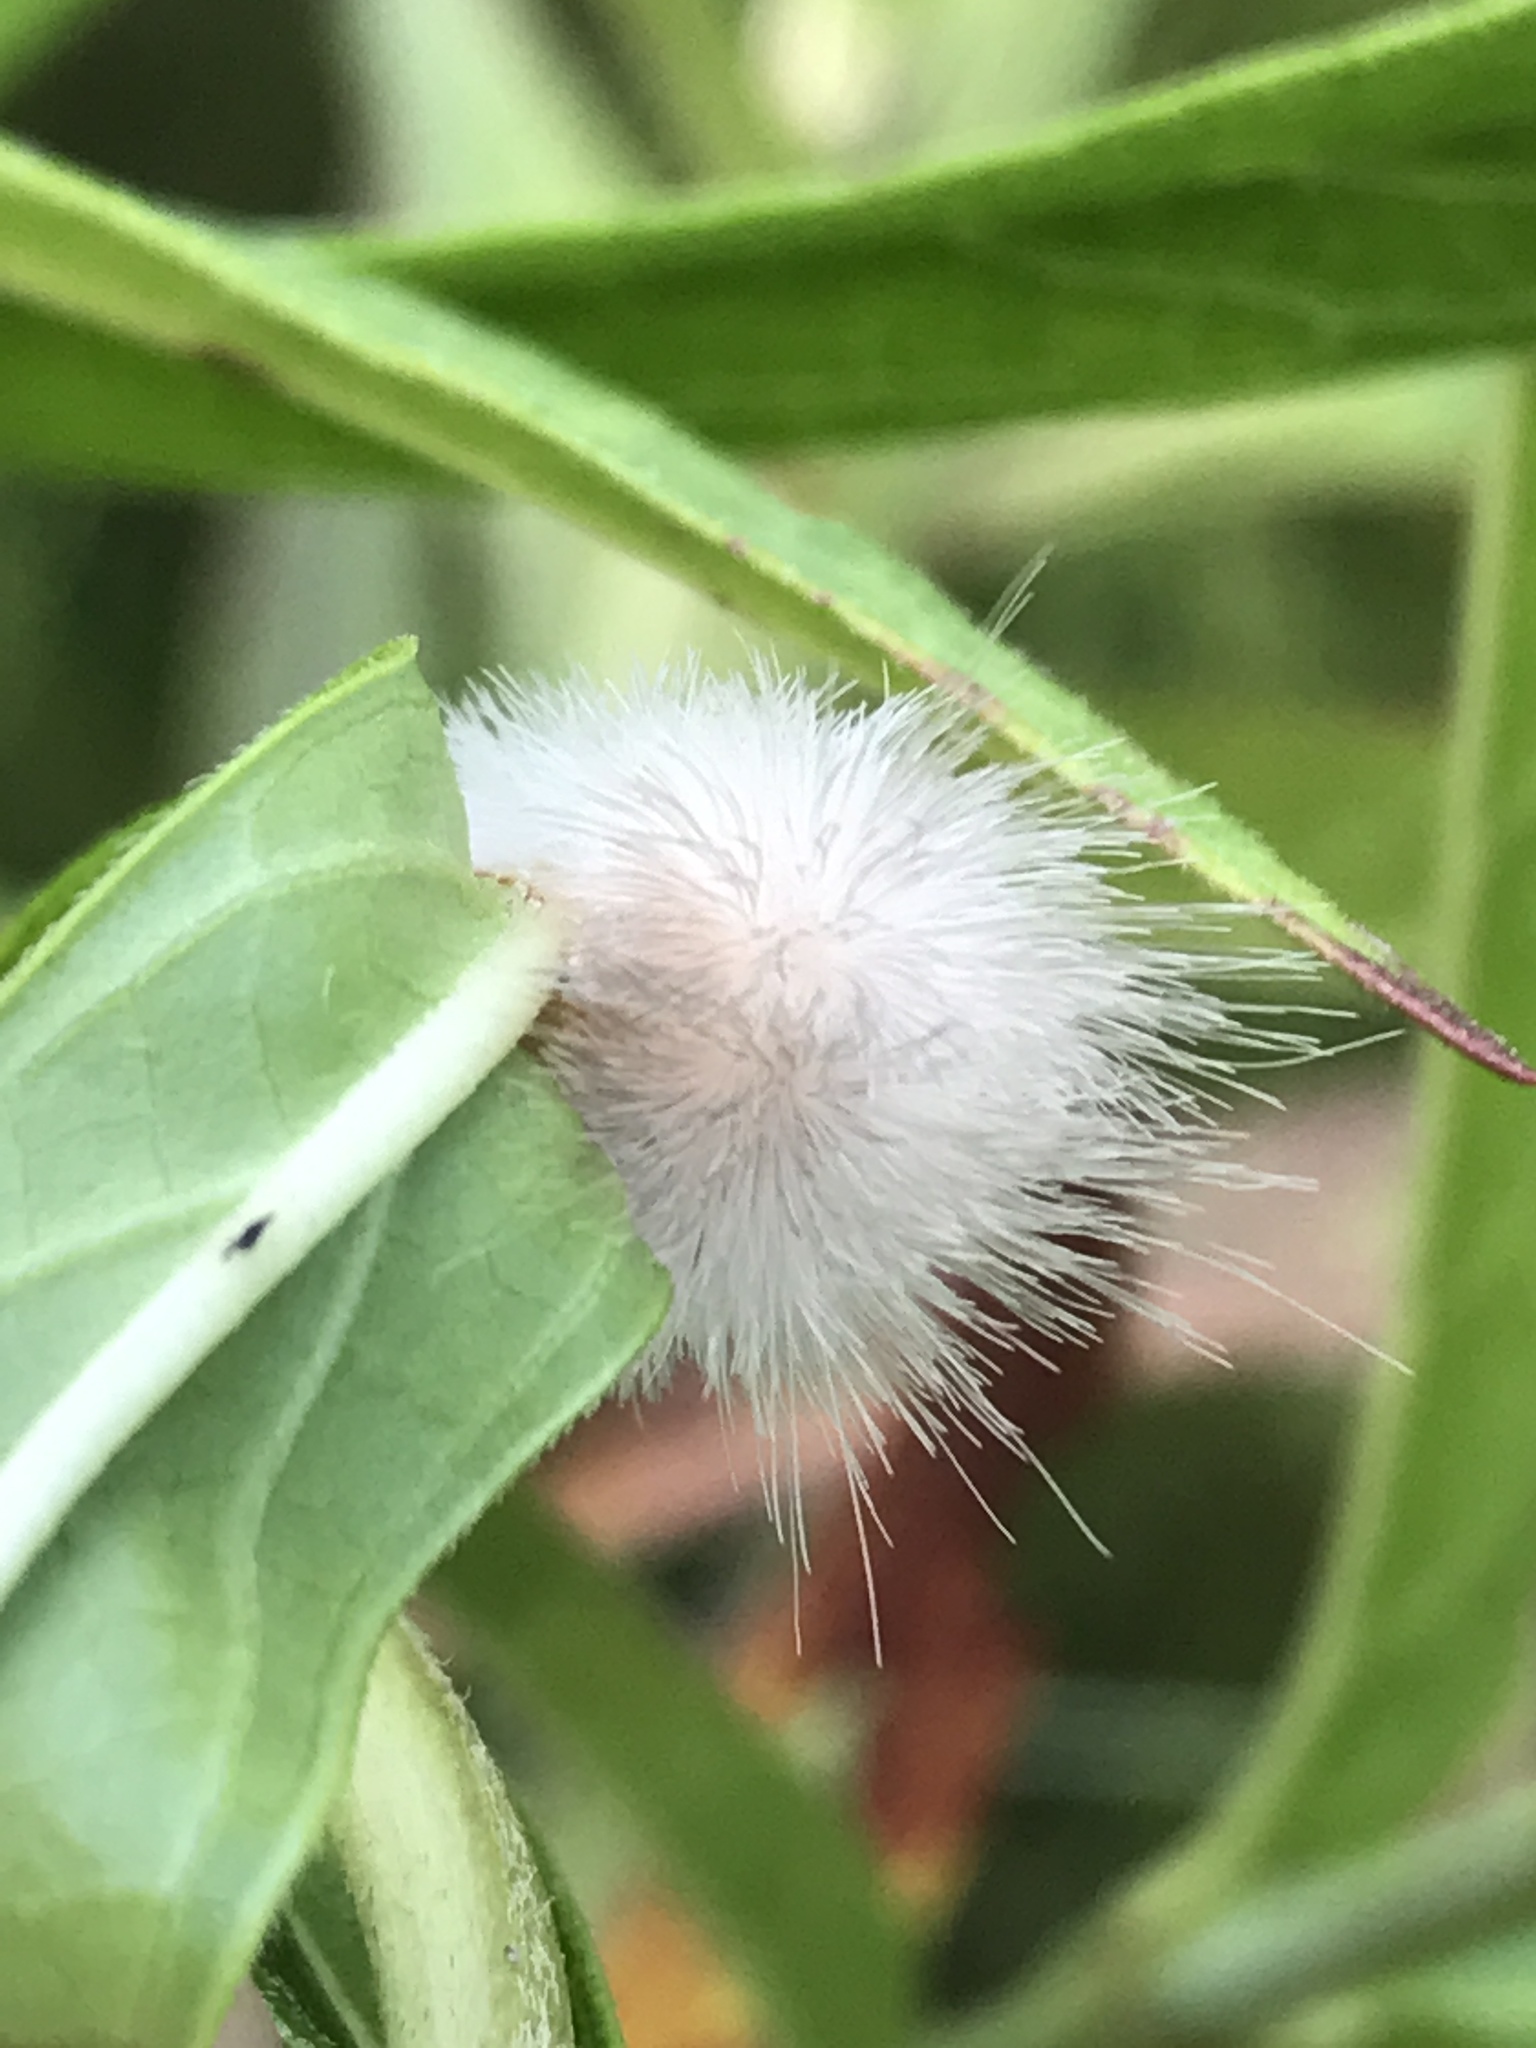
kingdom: Animalia
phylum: Arthropoda
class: Insecta
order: Lepidoptera
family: Erebidae
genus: Cycnia
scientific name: Cycnia tenera
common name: Delicate cycnia moth
